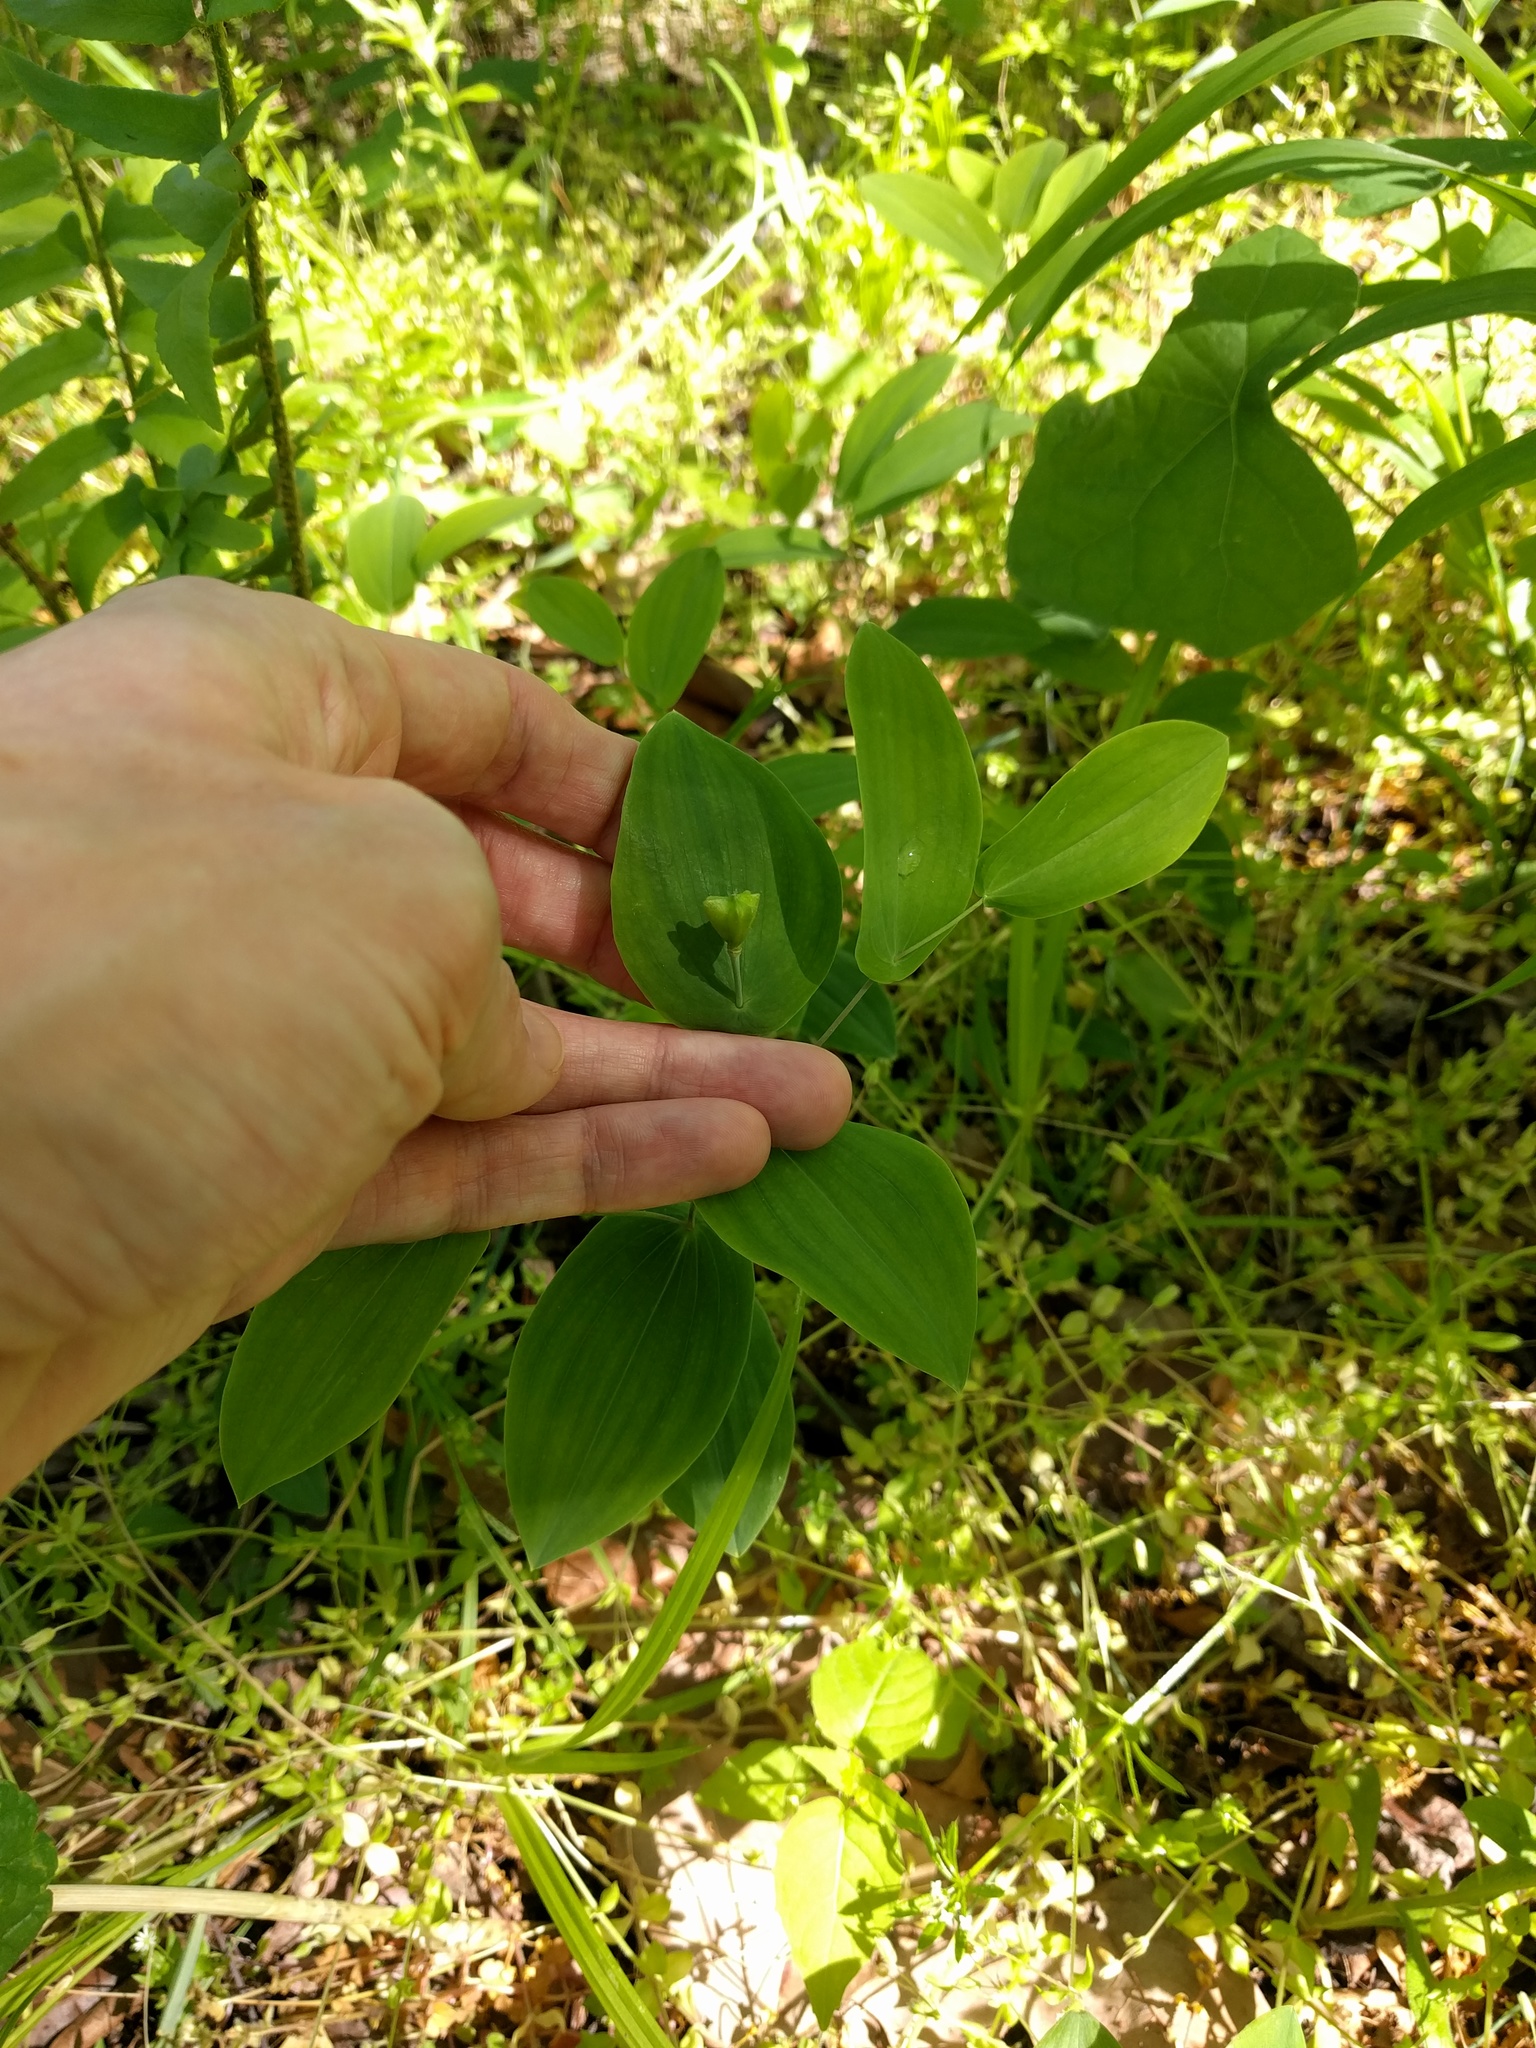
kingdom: Plantae
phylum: Tracheophyta
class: Liliopsida
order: Liliales
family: Colchicaceae
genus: Uvularia
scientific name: Uvularia perfoliata
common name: Perfoliate bellwort
